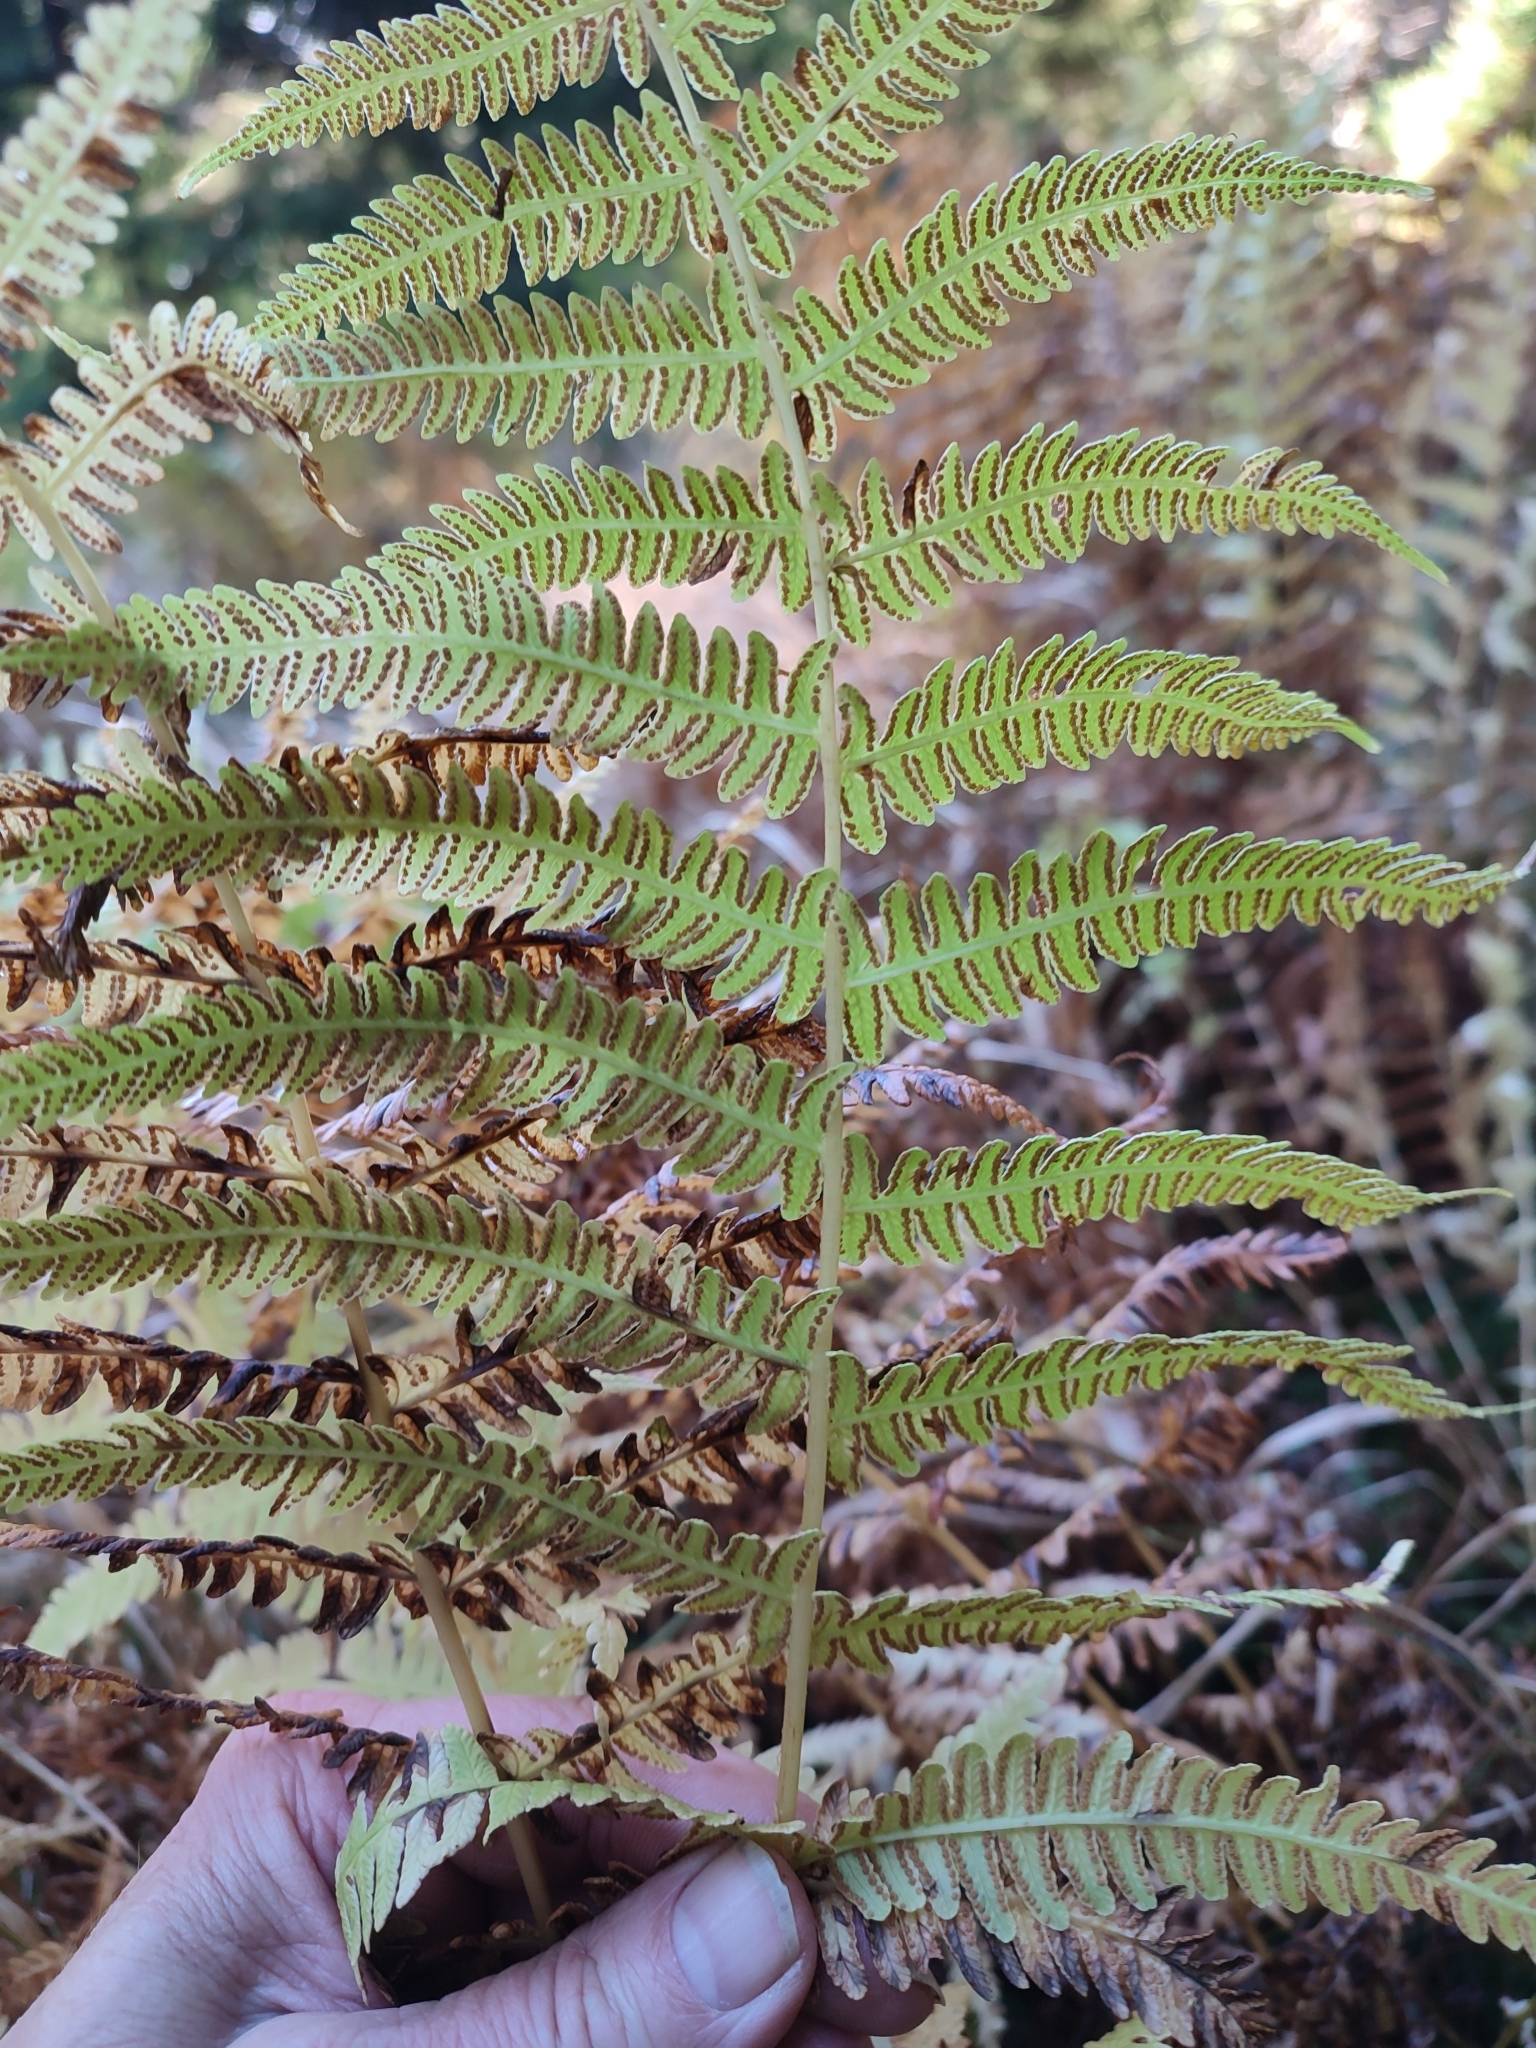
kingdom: Plantae
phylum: Tracheophyta
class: Polypodiopsida
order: Polypodiales
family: Thelypteridaceae
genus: Oreopteris
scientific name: Oreopteris limbosperma
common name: Lemon-scented fern
